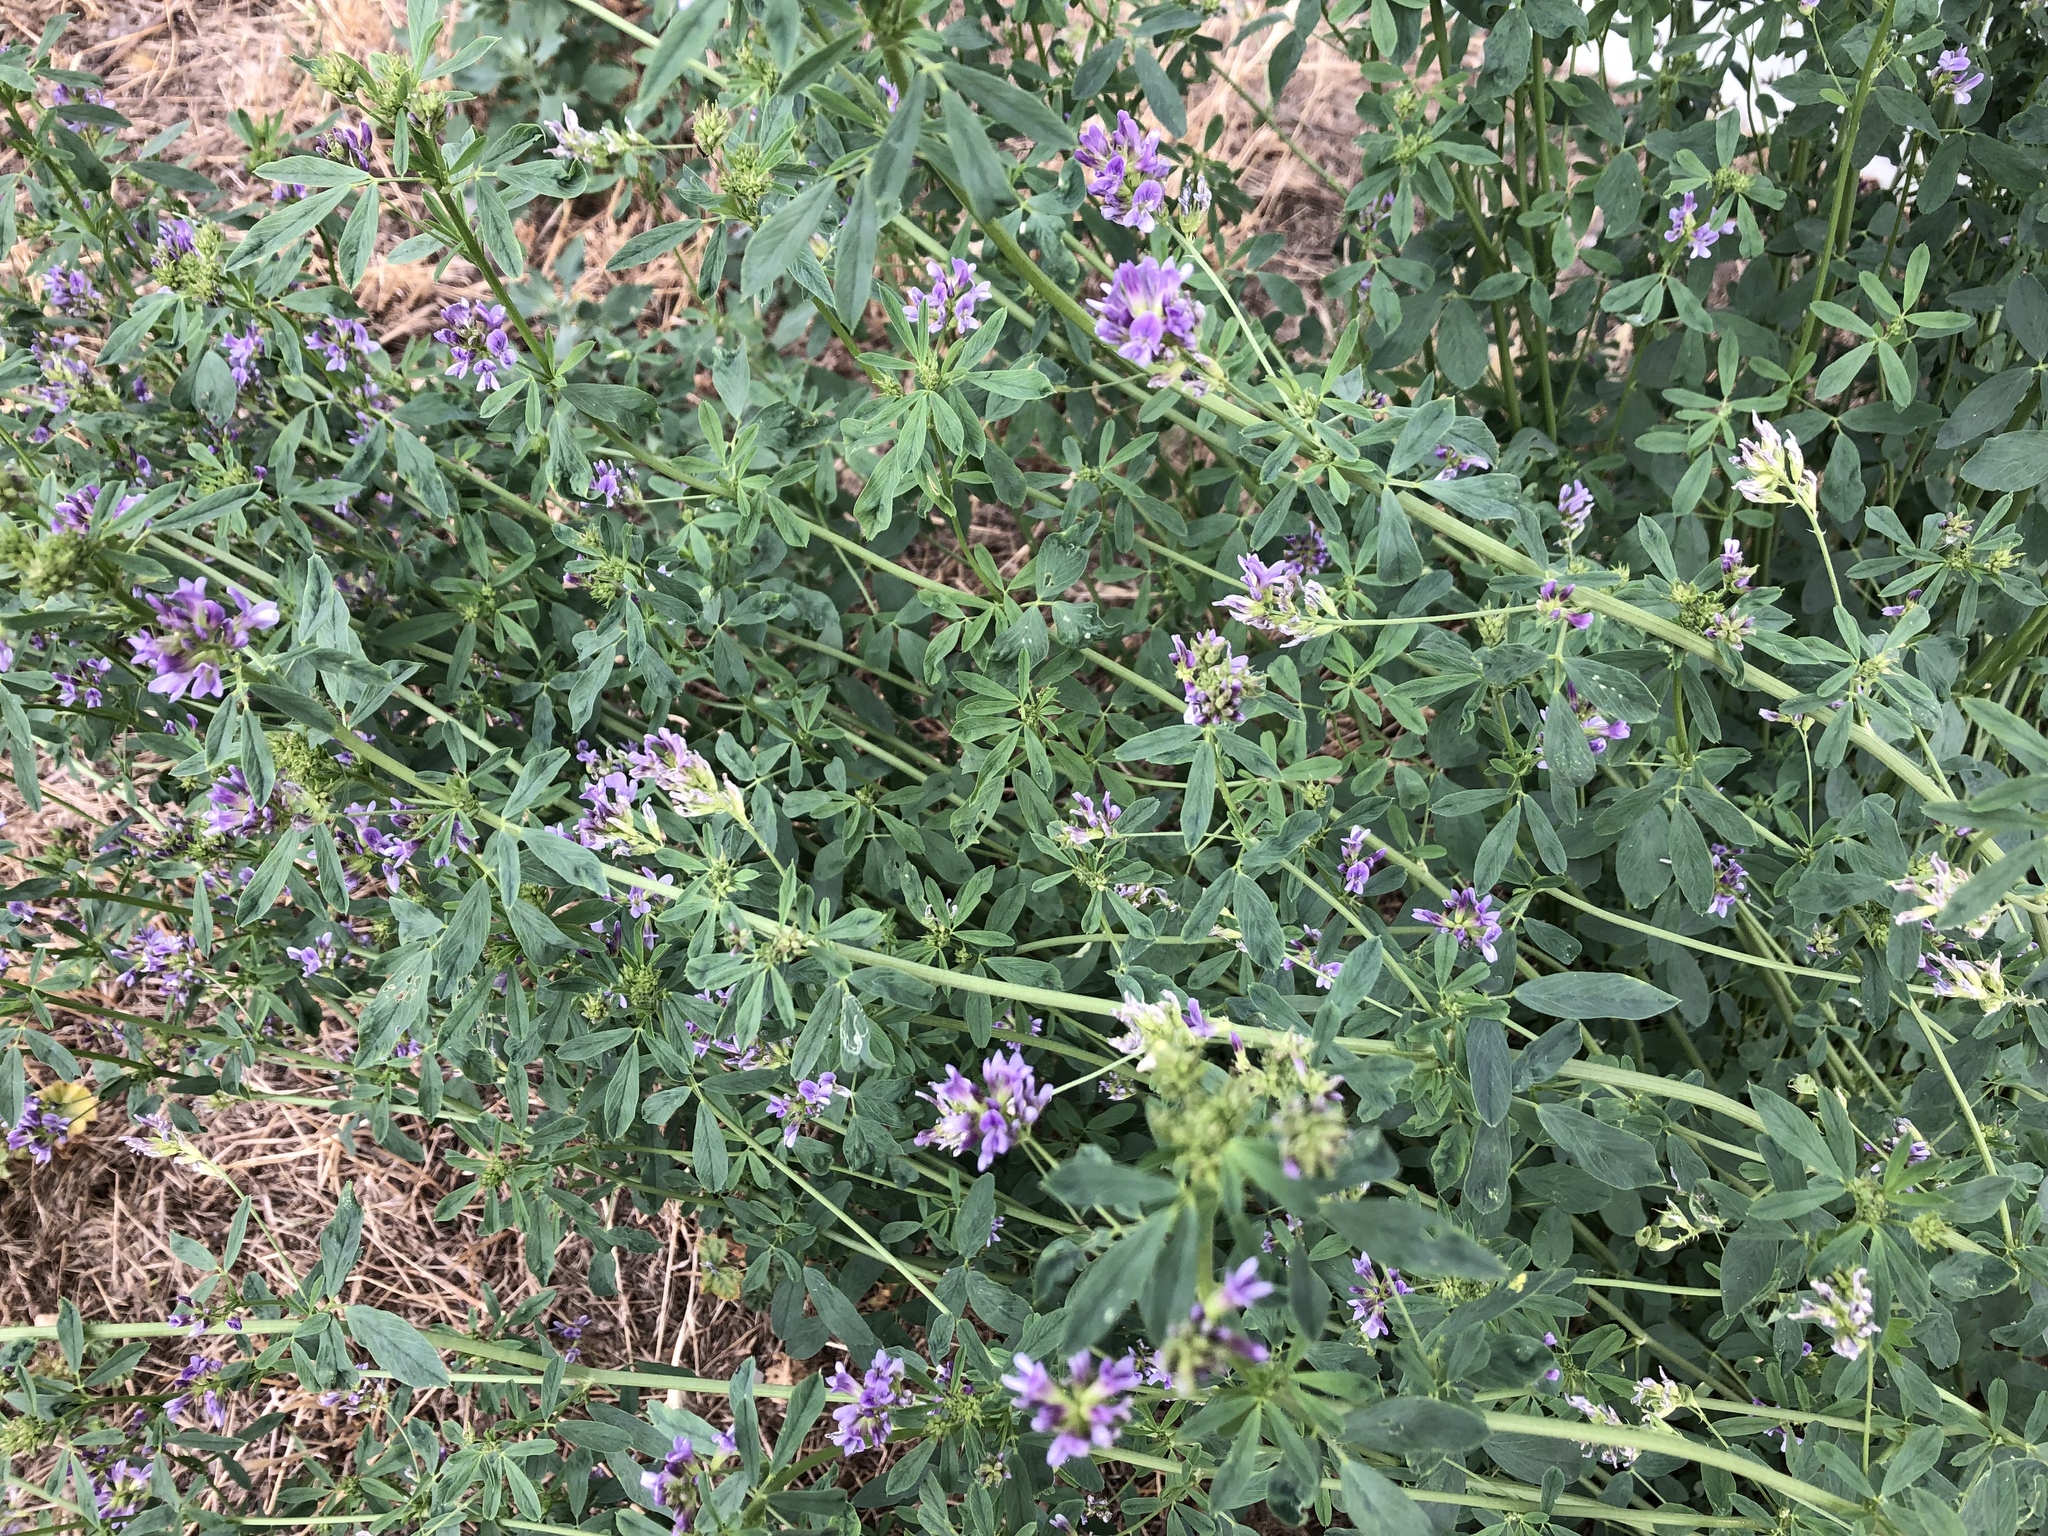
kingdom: Plantae
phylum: Tracheophyta
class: Magnoliopsida
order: Fabales
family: Fabaceae
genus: Medicago
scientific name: Medicago sativa
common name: Alfalfa
